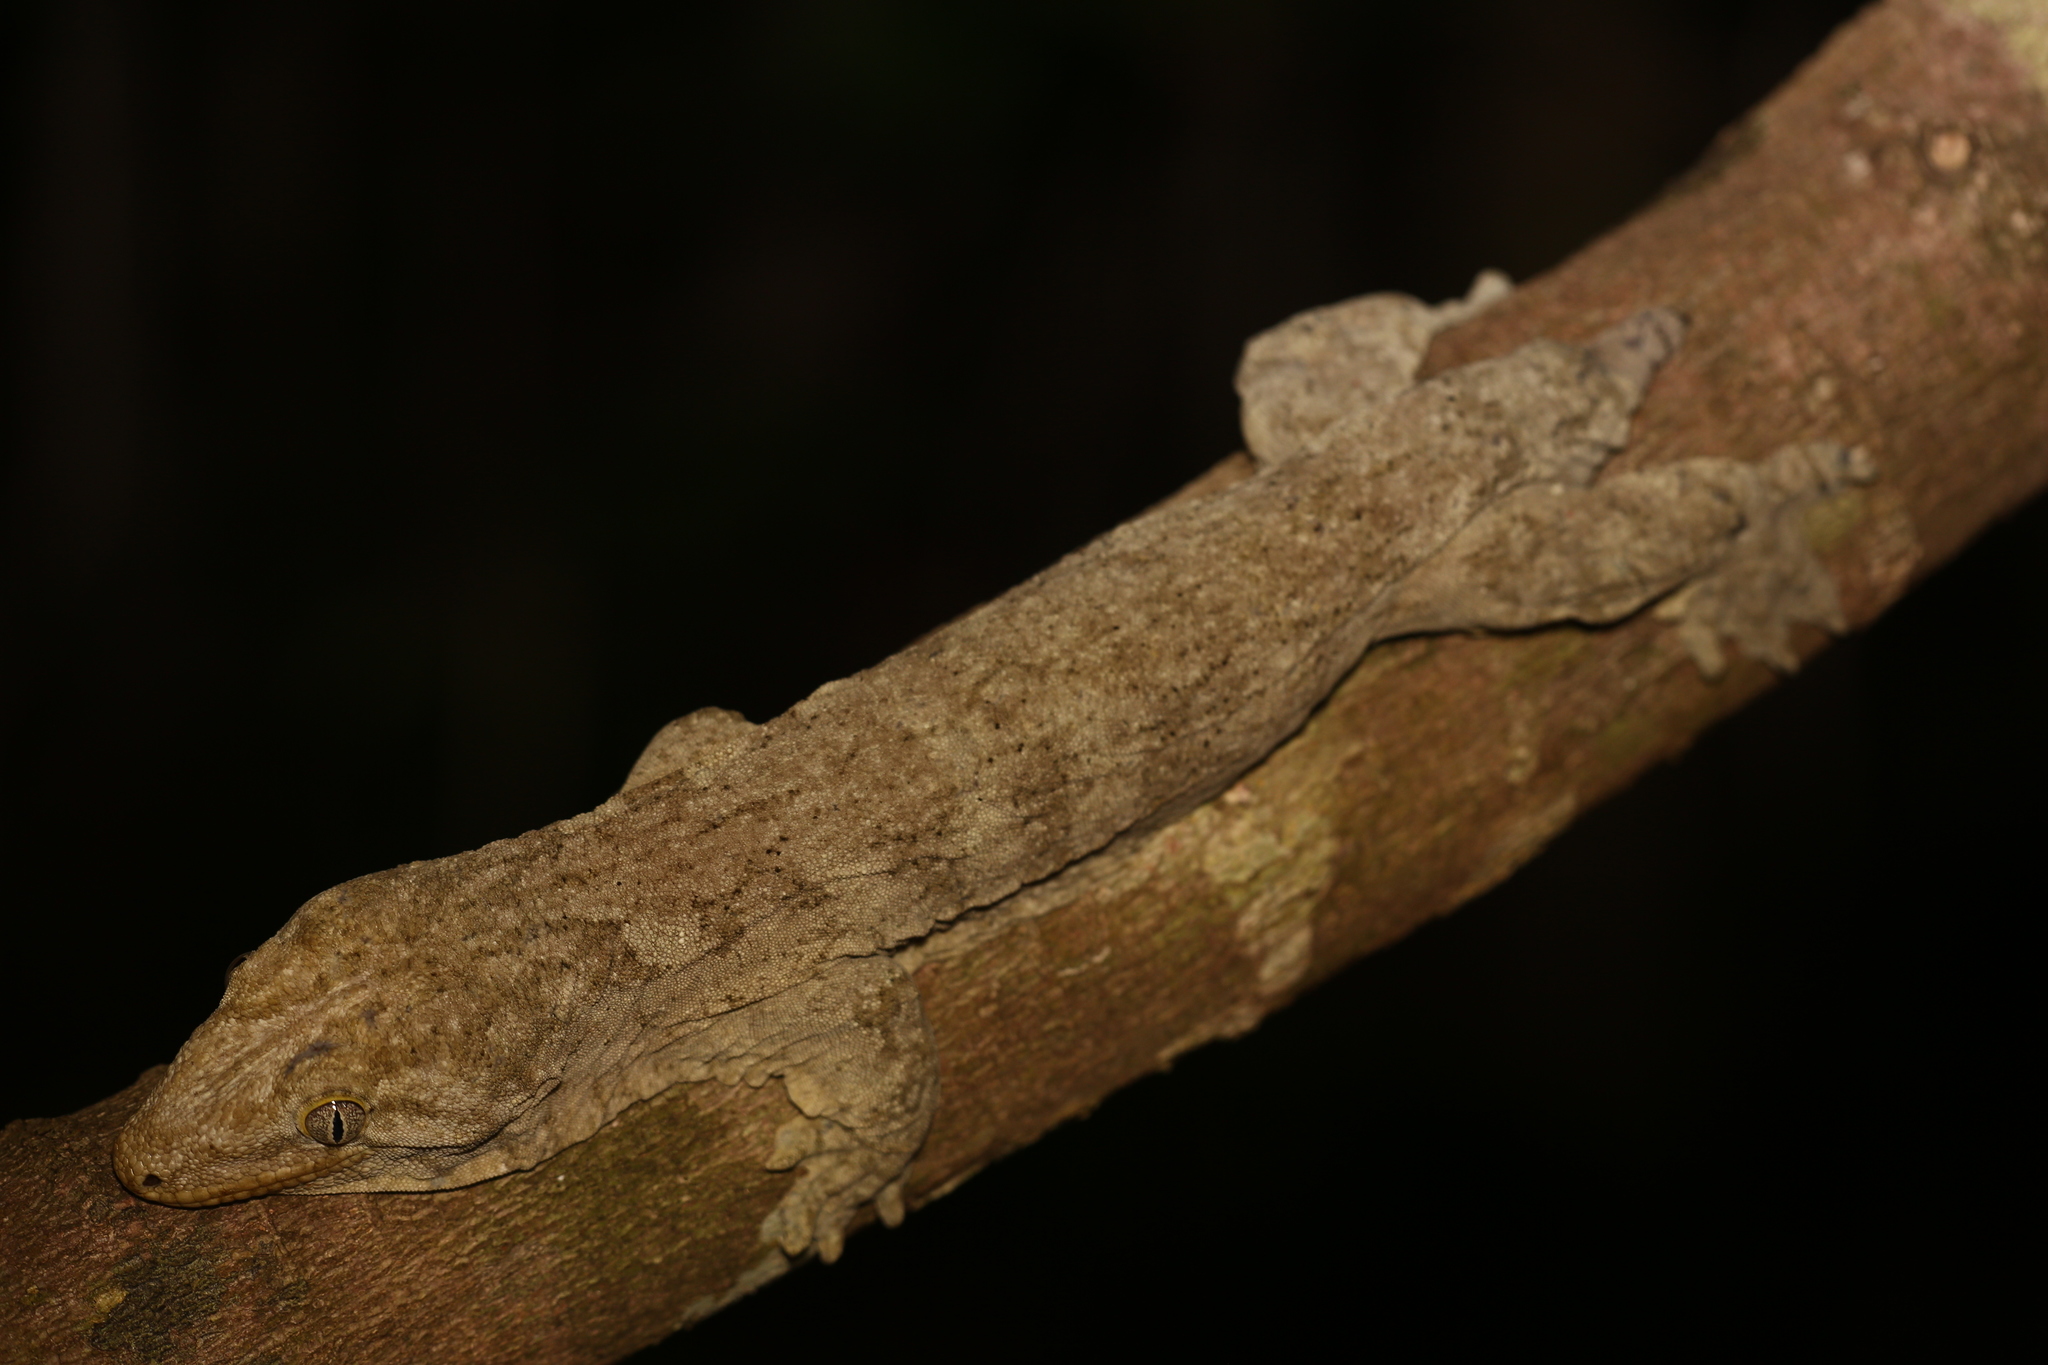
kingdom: Animalia
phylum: Chordata
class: Squamata
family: Diplodactylidae
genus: Rhacodactylus
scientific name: Rhacodactylus leachianus
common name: New caledonia giant gecko
